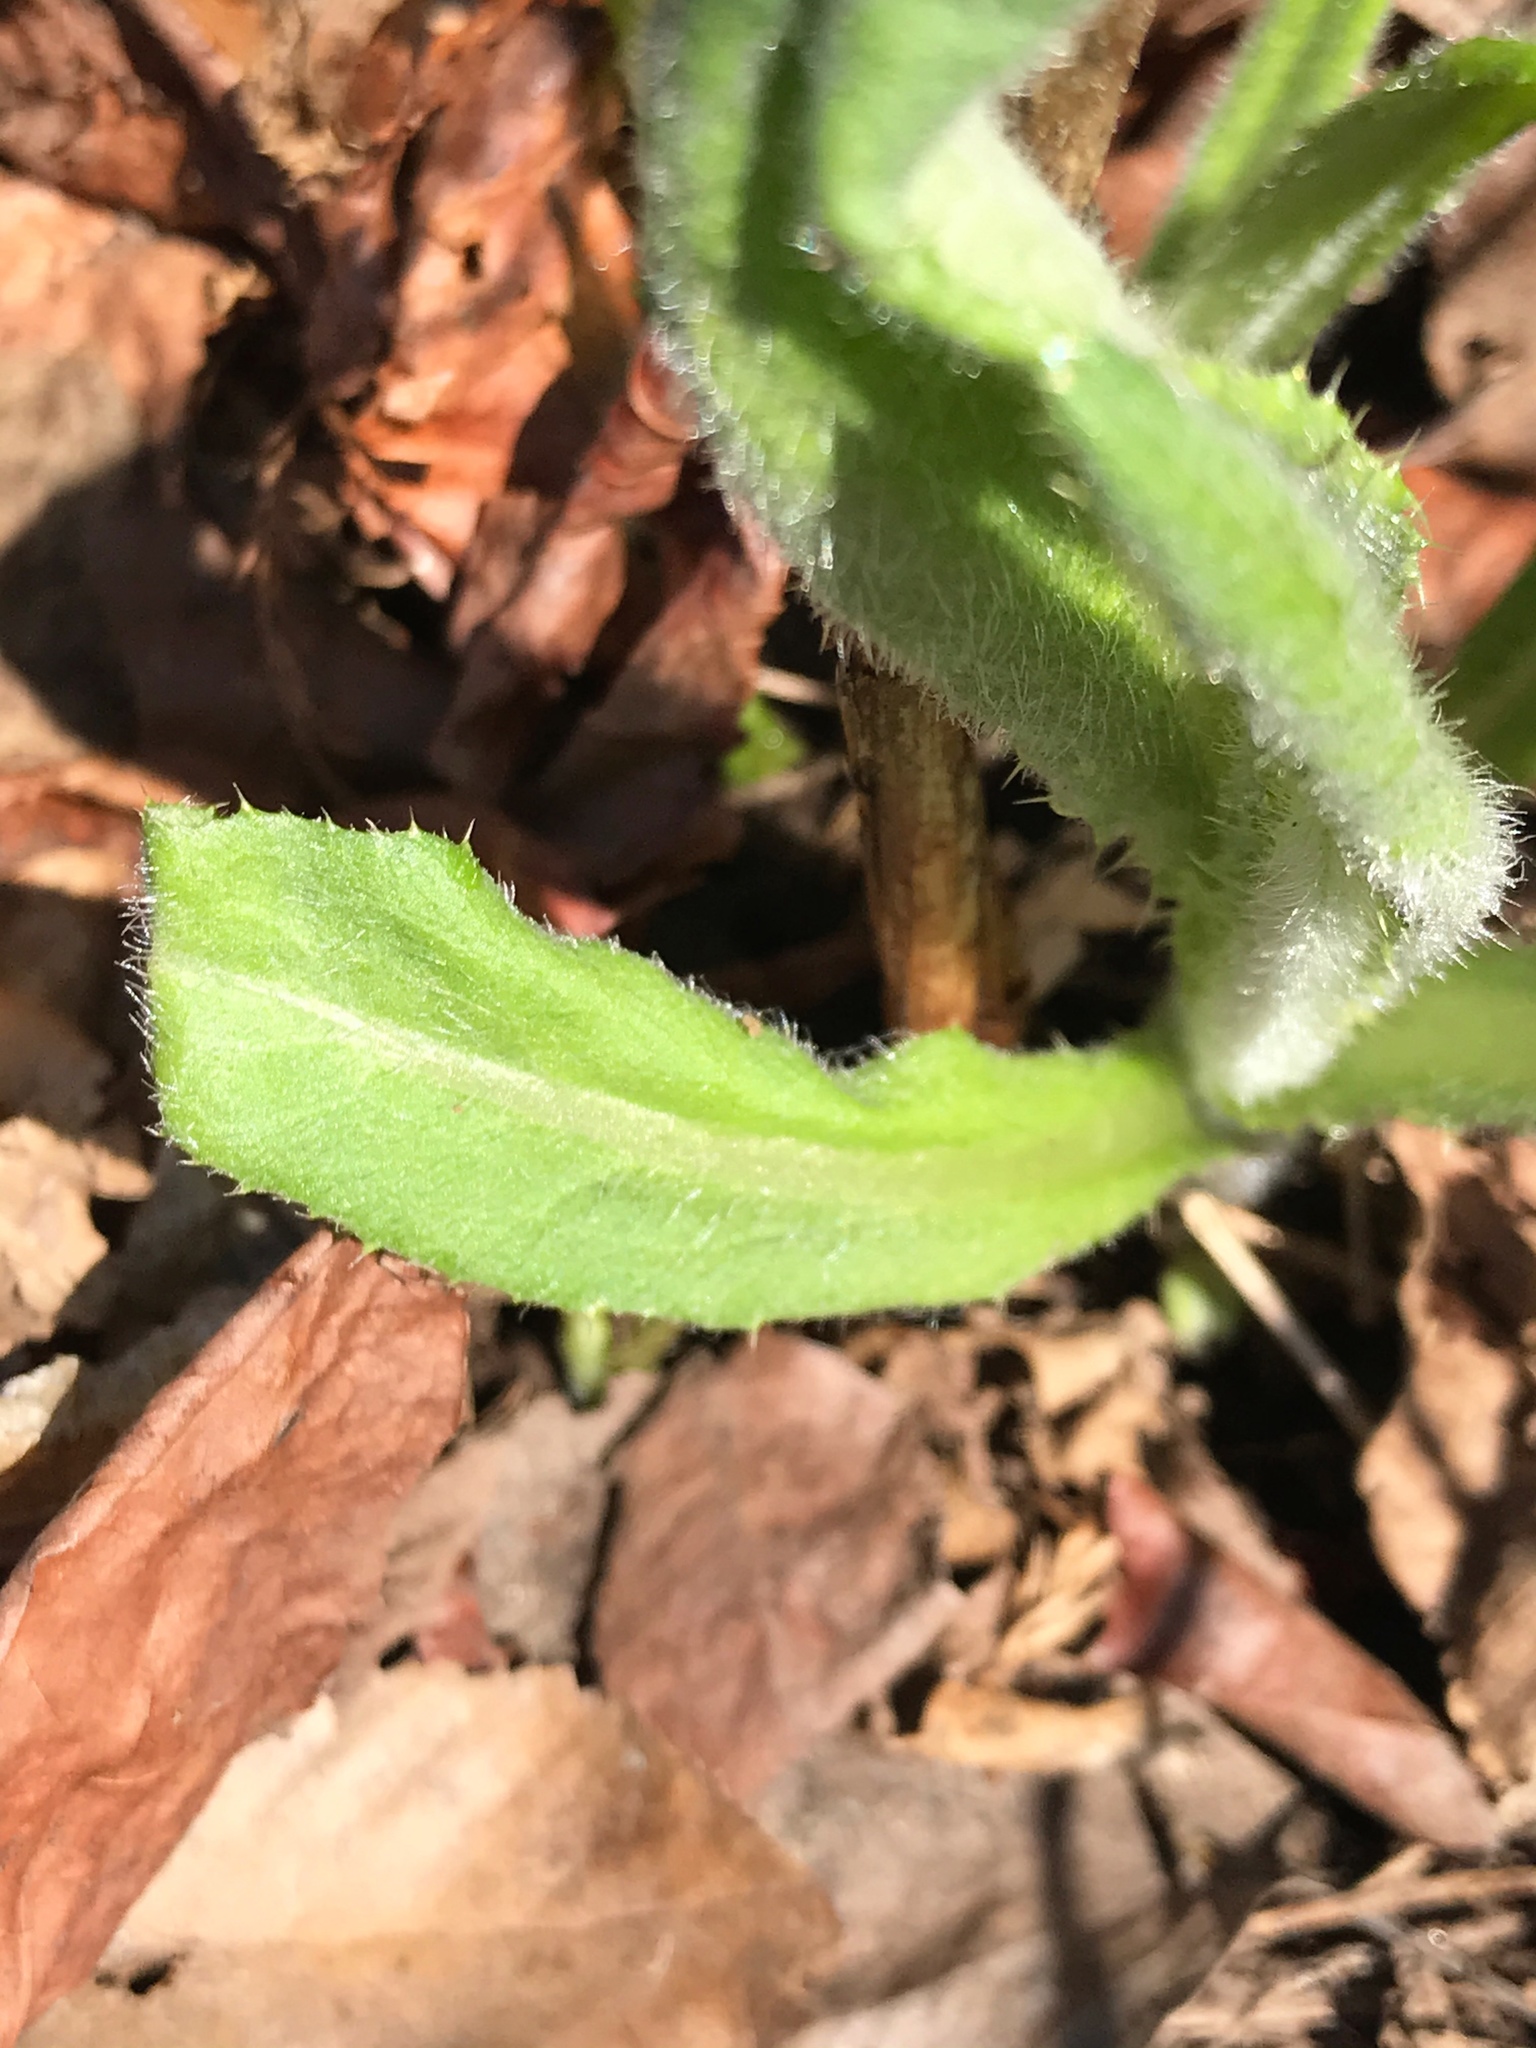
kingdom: Plantae
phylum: Tracheophyta
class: Magnoliopsida
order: Asterales
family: Asteraceae
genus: Cirsium
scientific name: Cirsium arvense
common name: Creeping thistle
